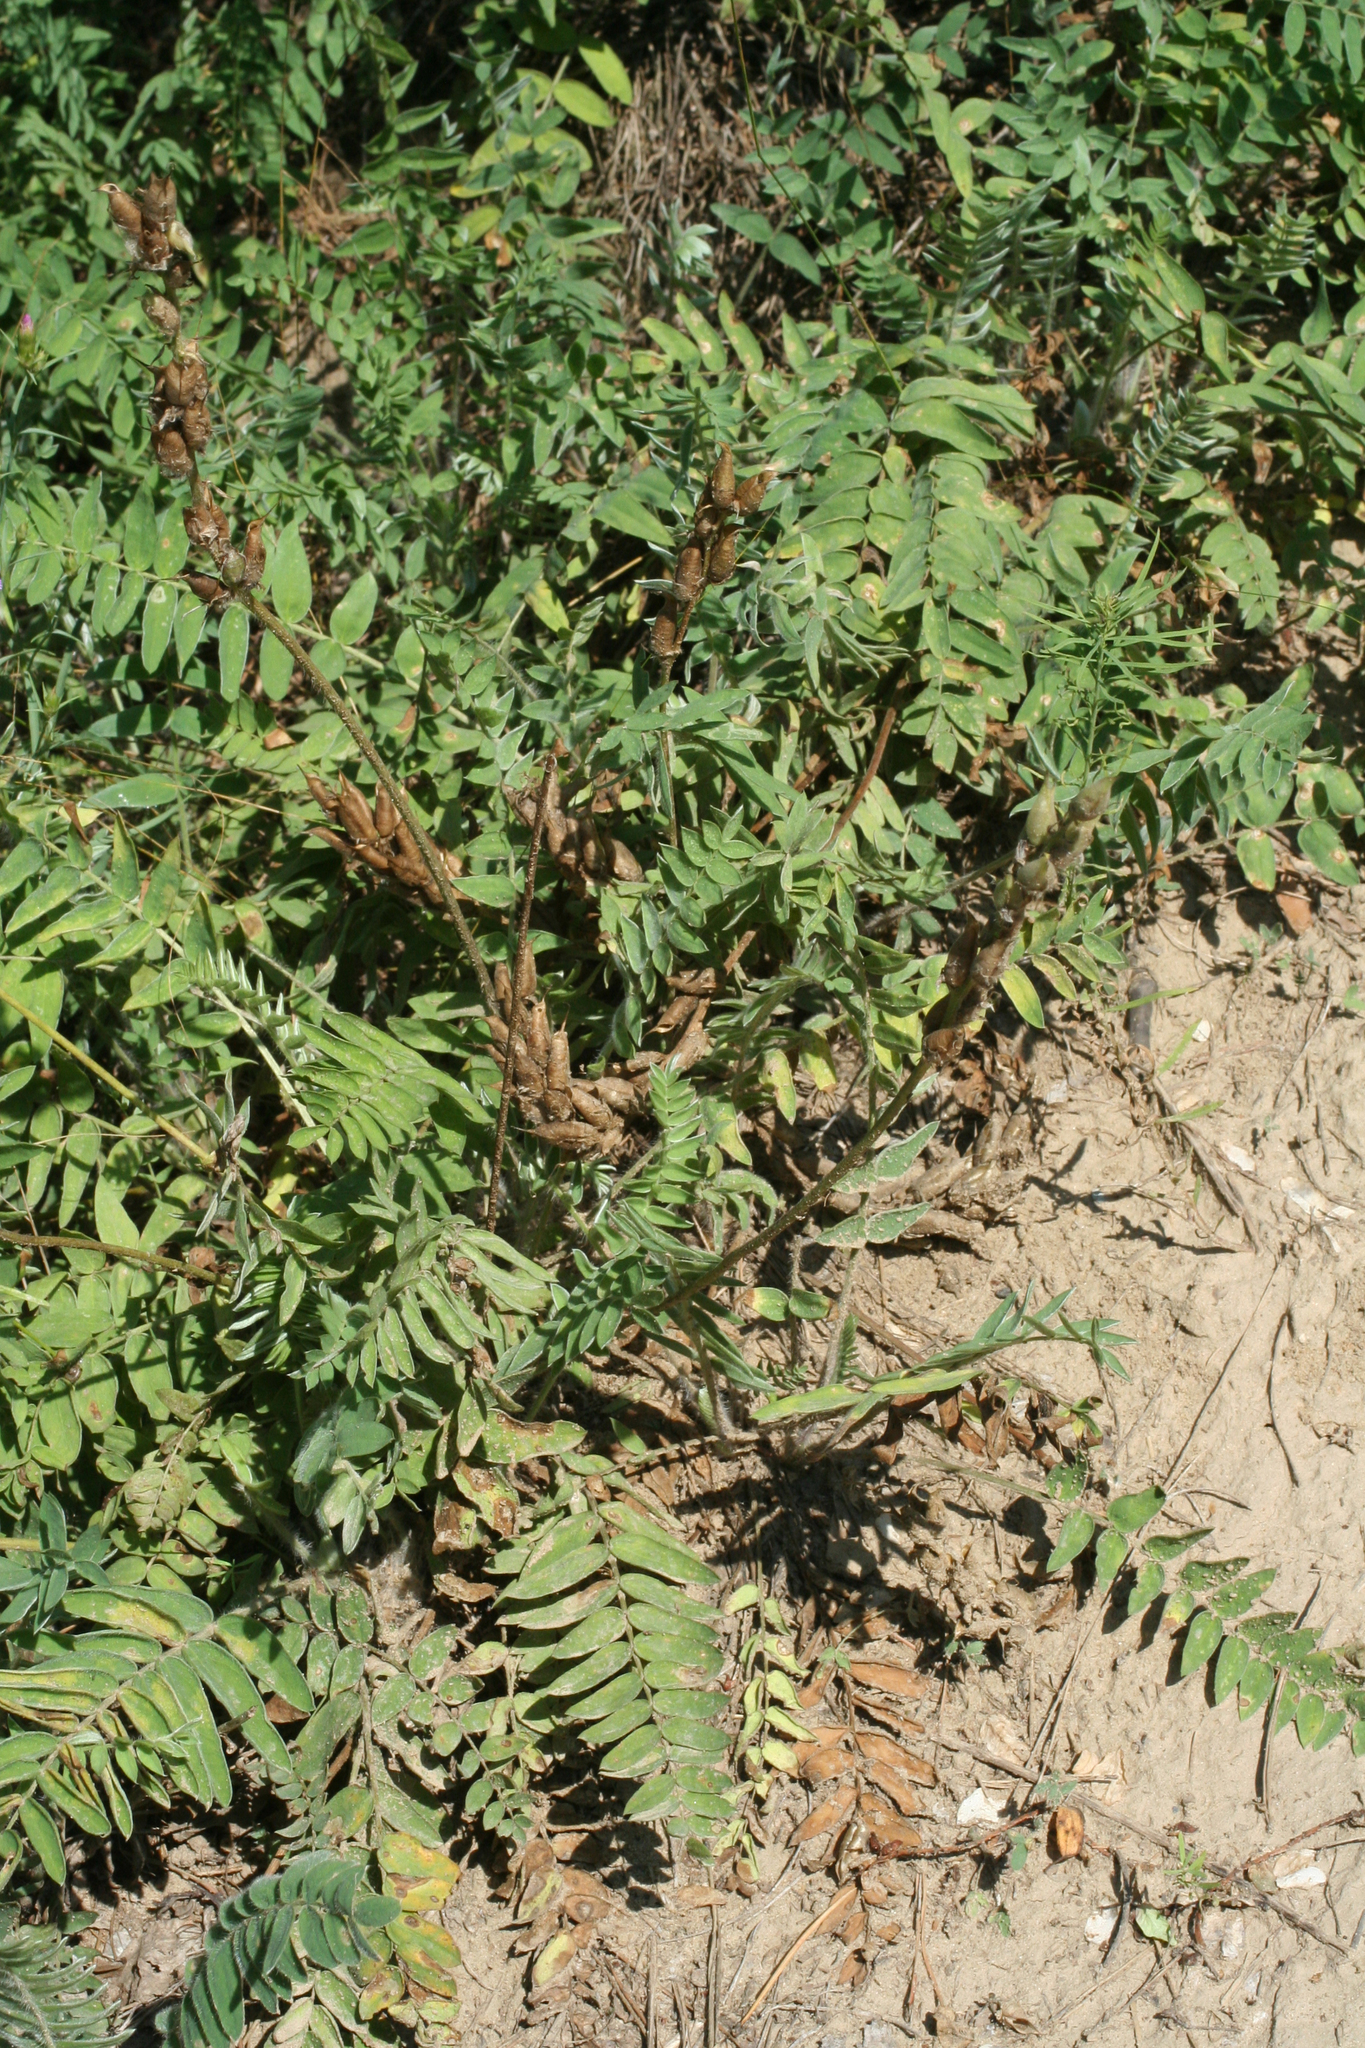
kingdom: Plantae
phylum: Tracheophyta
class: Magnoliopsida
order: Fabales
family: Fabaceae
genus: Oxytropis
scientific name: Oxytropis campanulata
